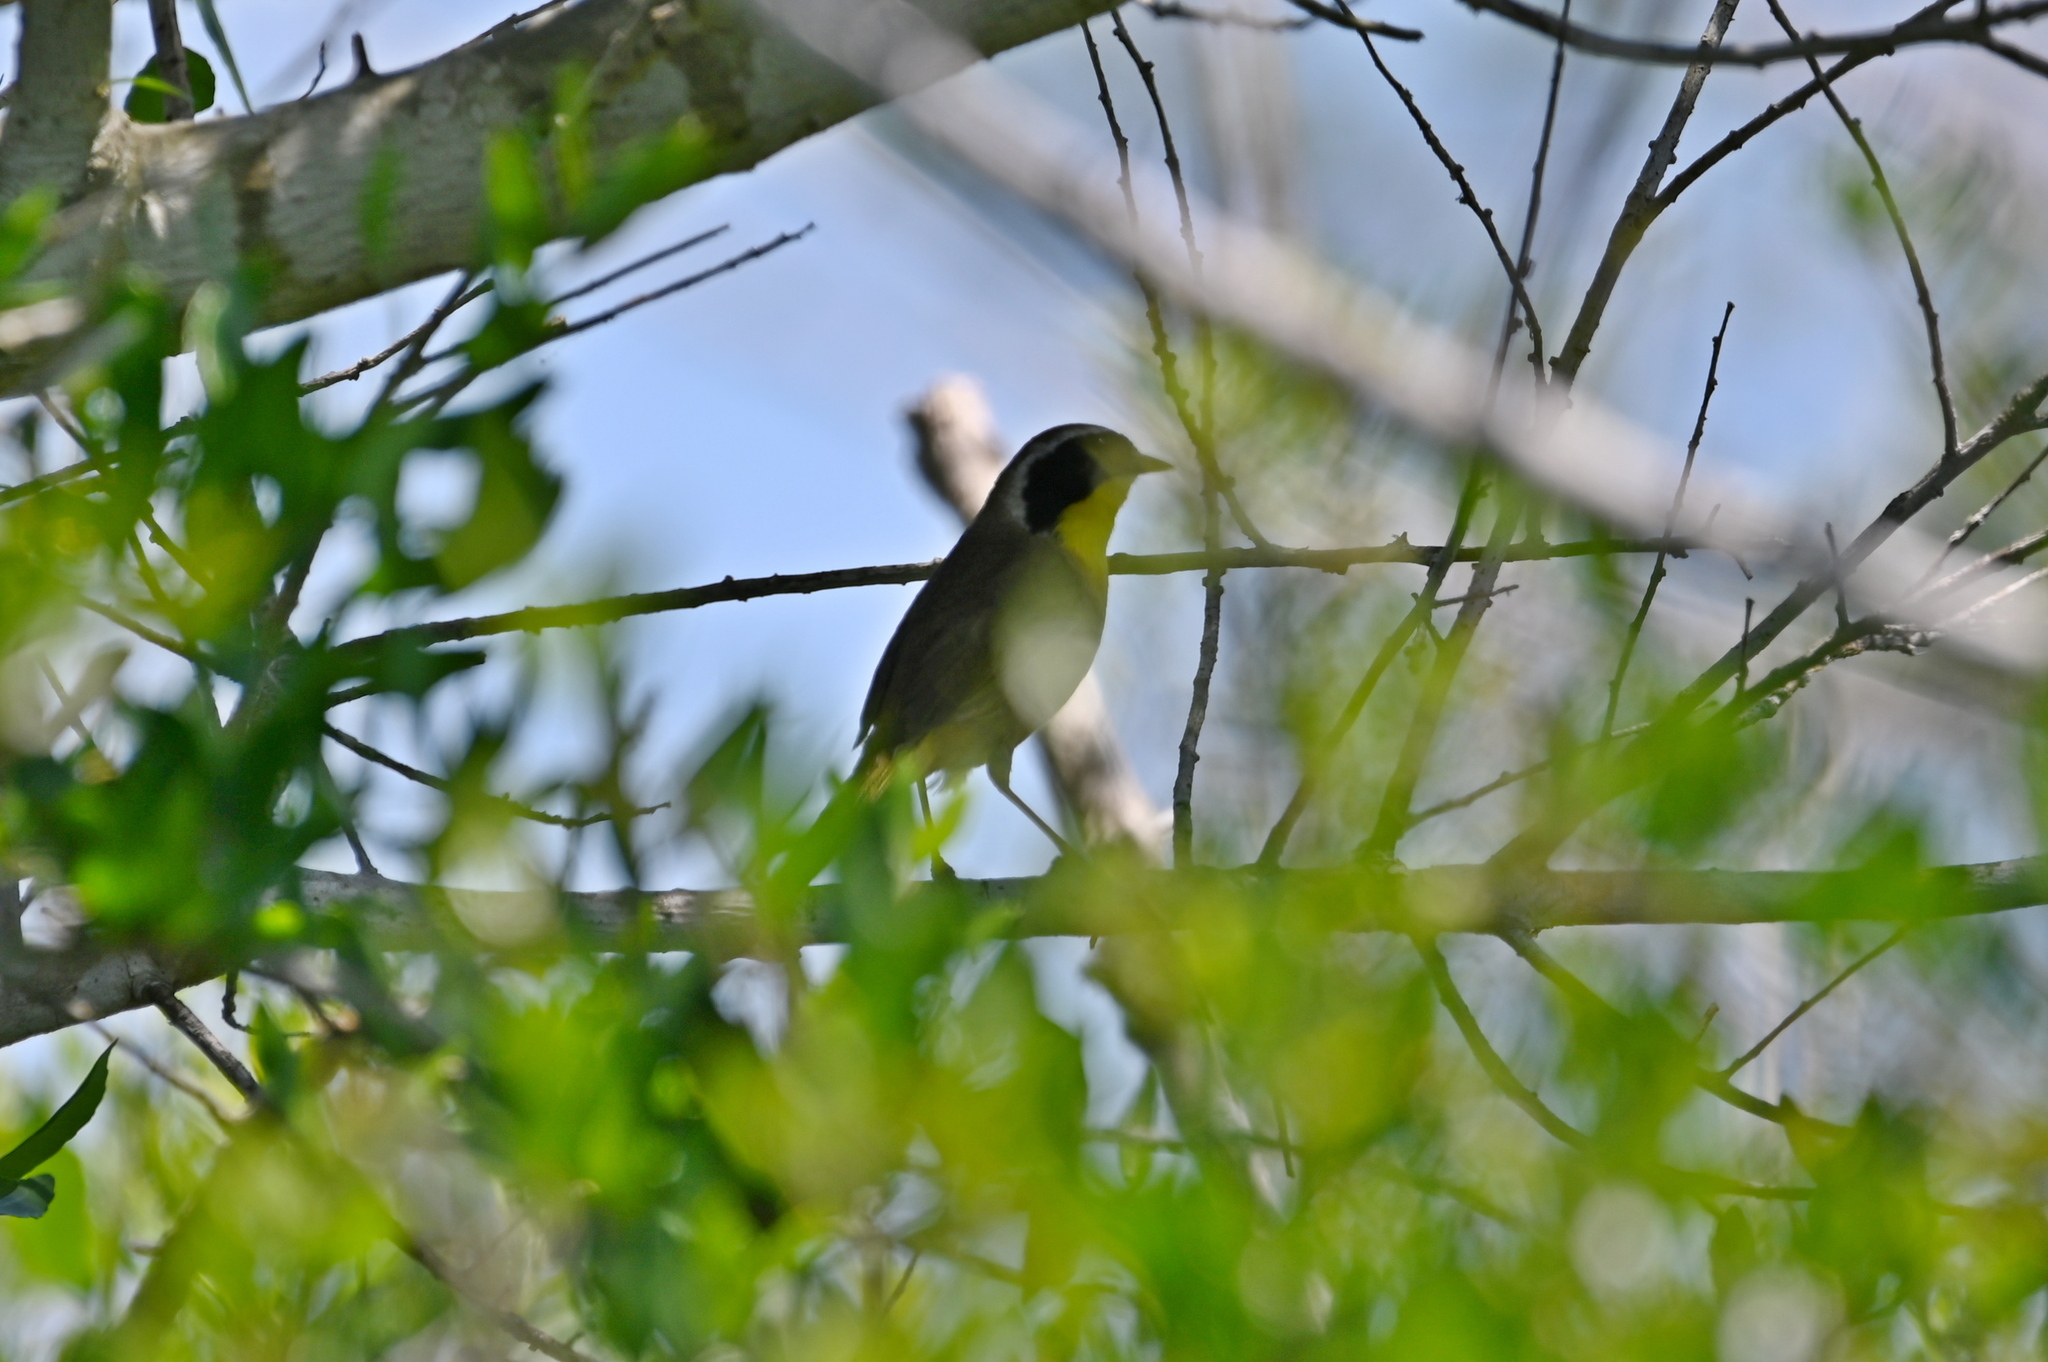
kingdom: Animalia
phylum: Chordata
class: Aves
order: Passeriformes
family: Parulidae
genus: Geothlypis
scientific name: Geothlypis trichas
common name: Common yellowthroat
